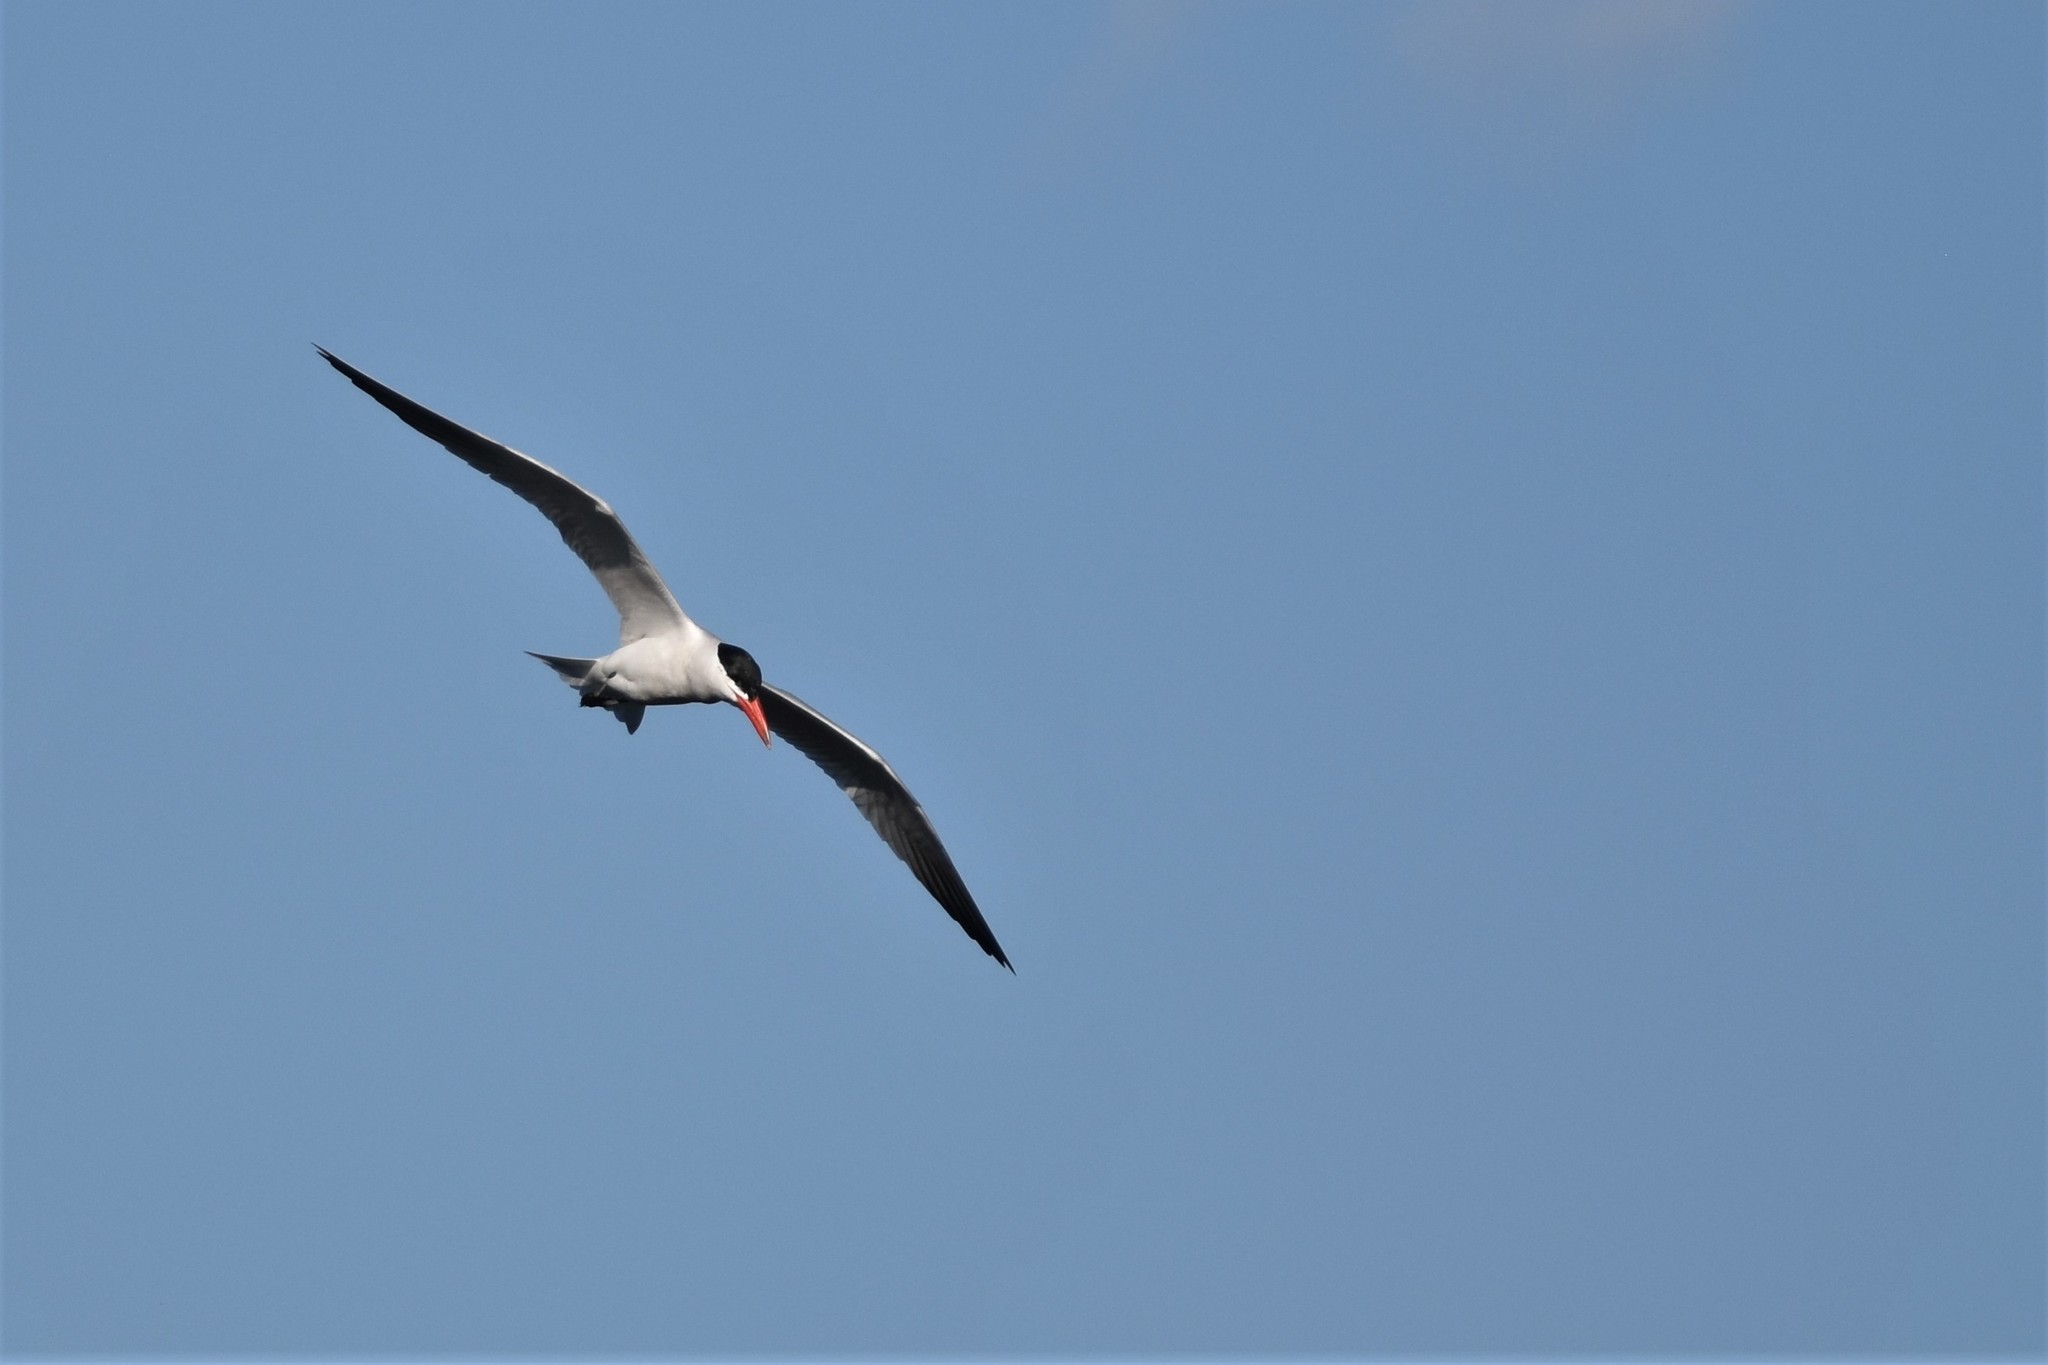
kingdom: Animalia
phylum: Chordata
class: Aves
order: Charadriiformes
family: Laridae
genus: Hydroprogne
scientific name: Hydroprogne caspia
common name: Caspian tern
